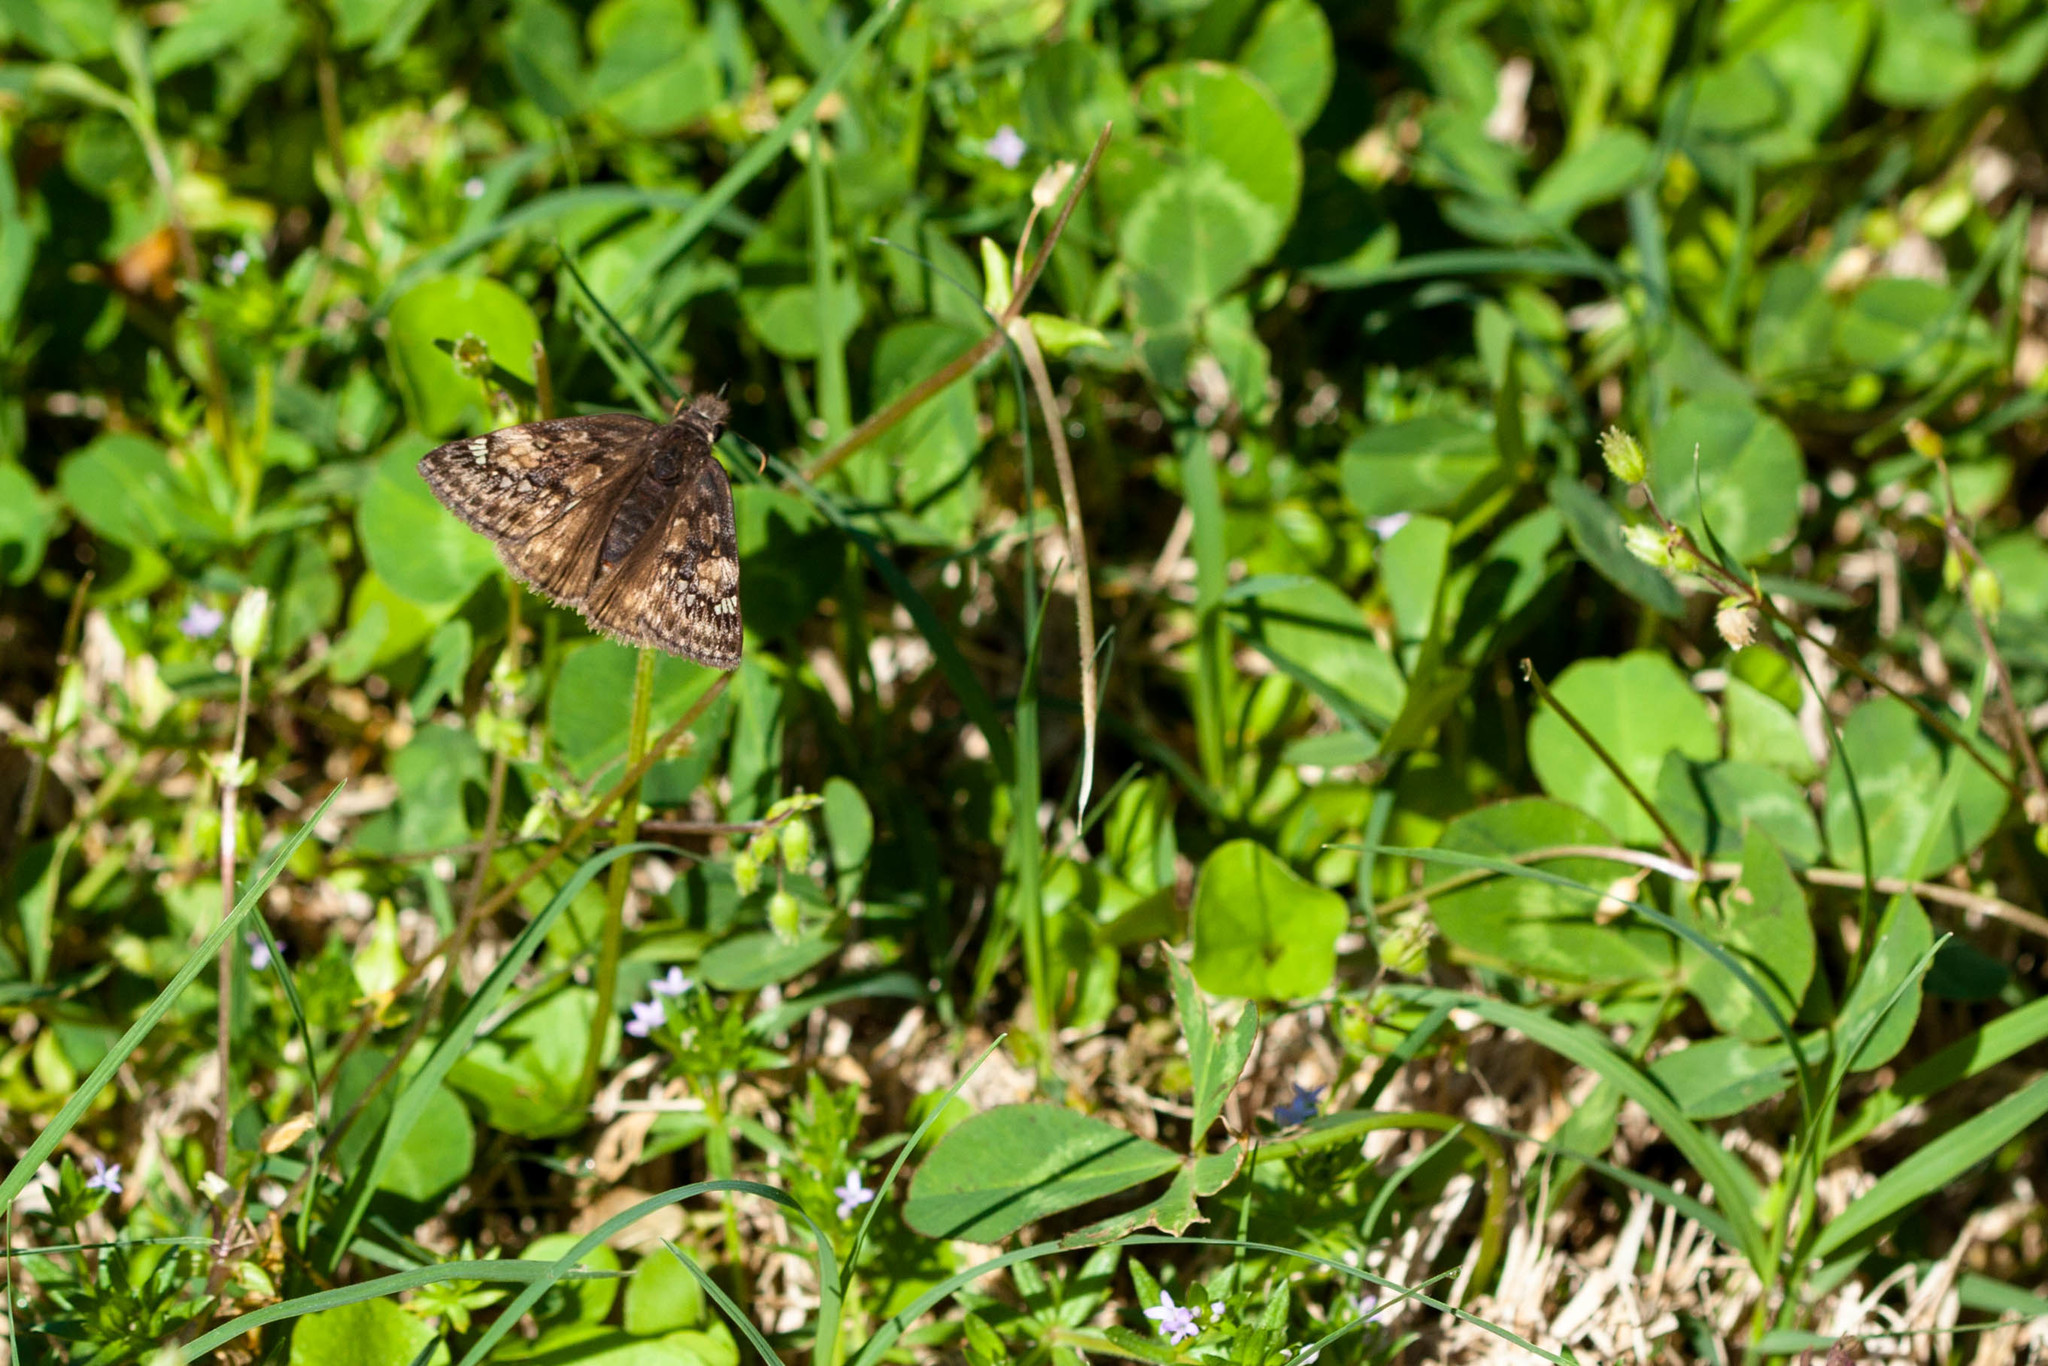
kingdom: Animalia
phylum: Arthropoda
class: Insecta
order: Lepidoptera
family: Hesperiidae
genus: Erynnis
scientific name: Erynnis juvenalis
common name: Juvenal's duskywing
